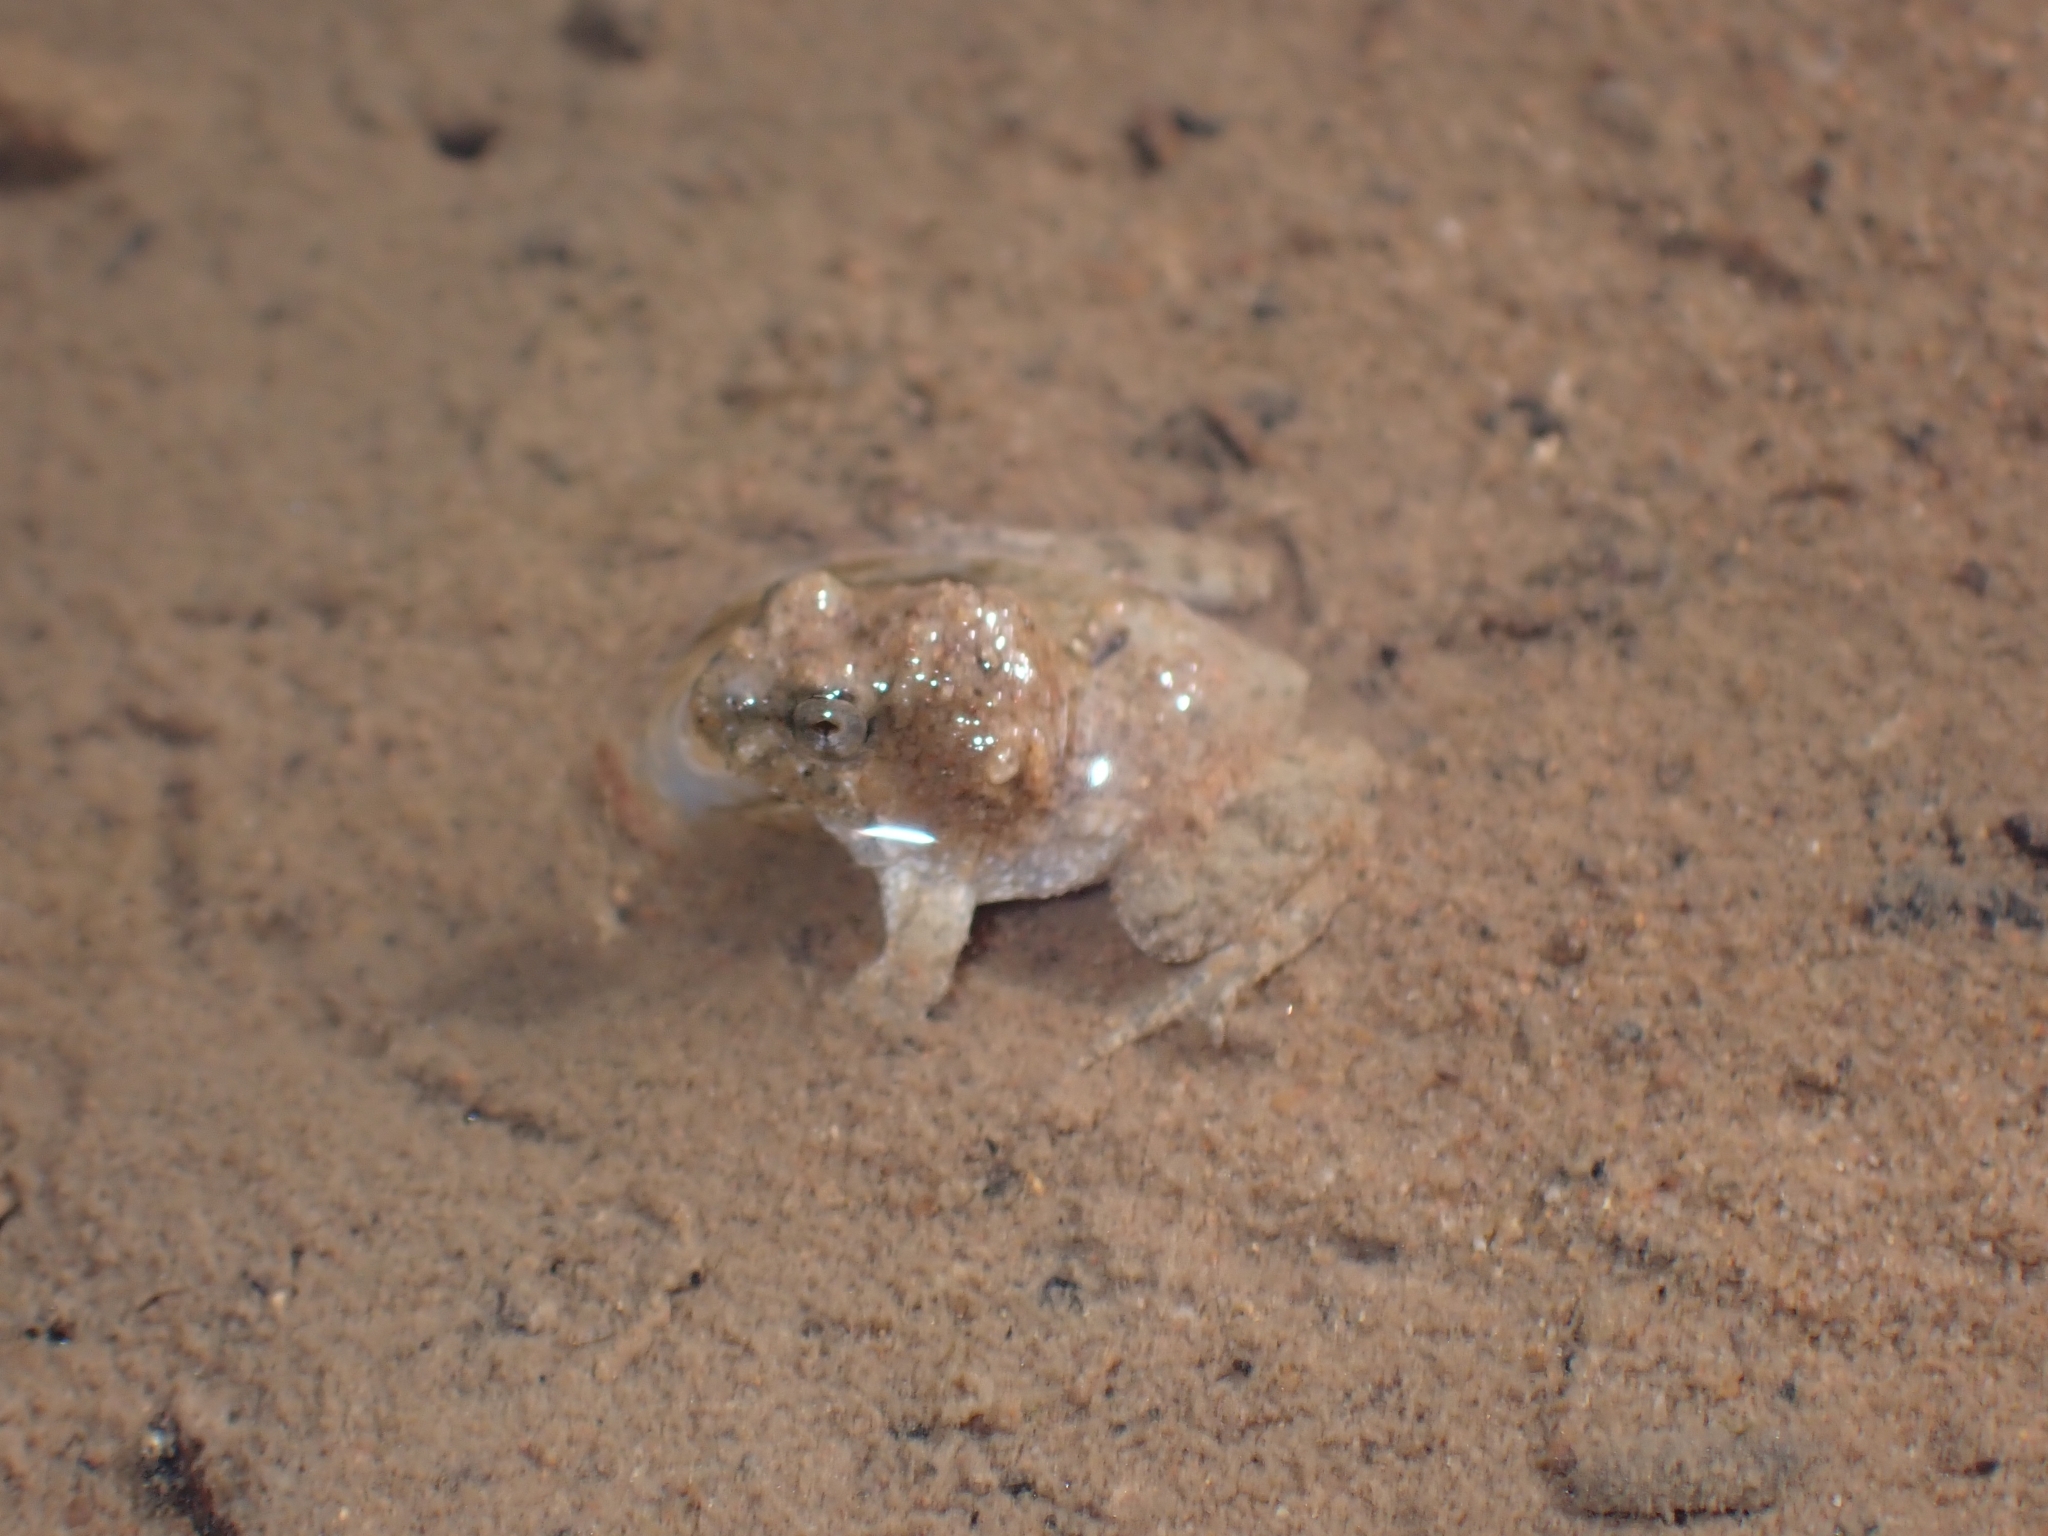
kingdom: Animalia
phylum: Chordata
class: Amphibia
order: Anura
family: Dicroglossidae
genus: Occidozyga
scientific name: Occidozyga magnapustulosa
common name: Thai oriental frog
